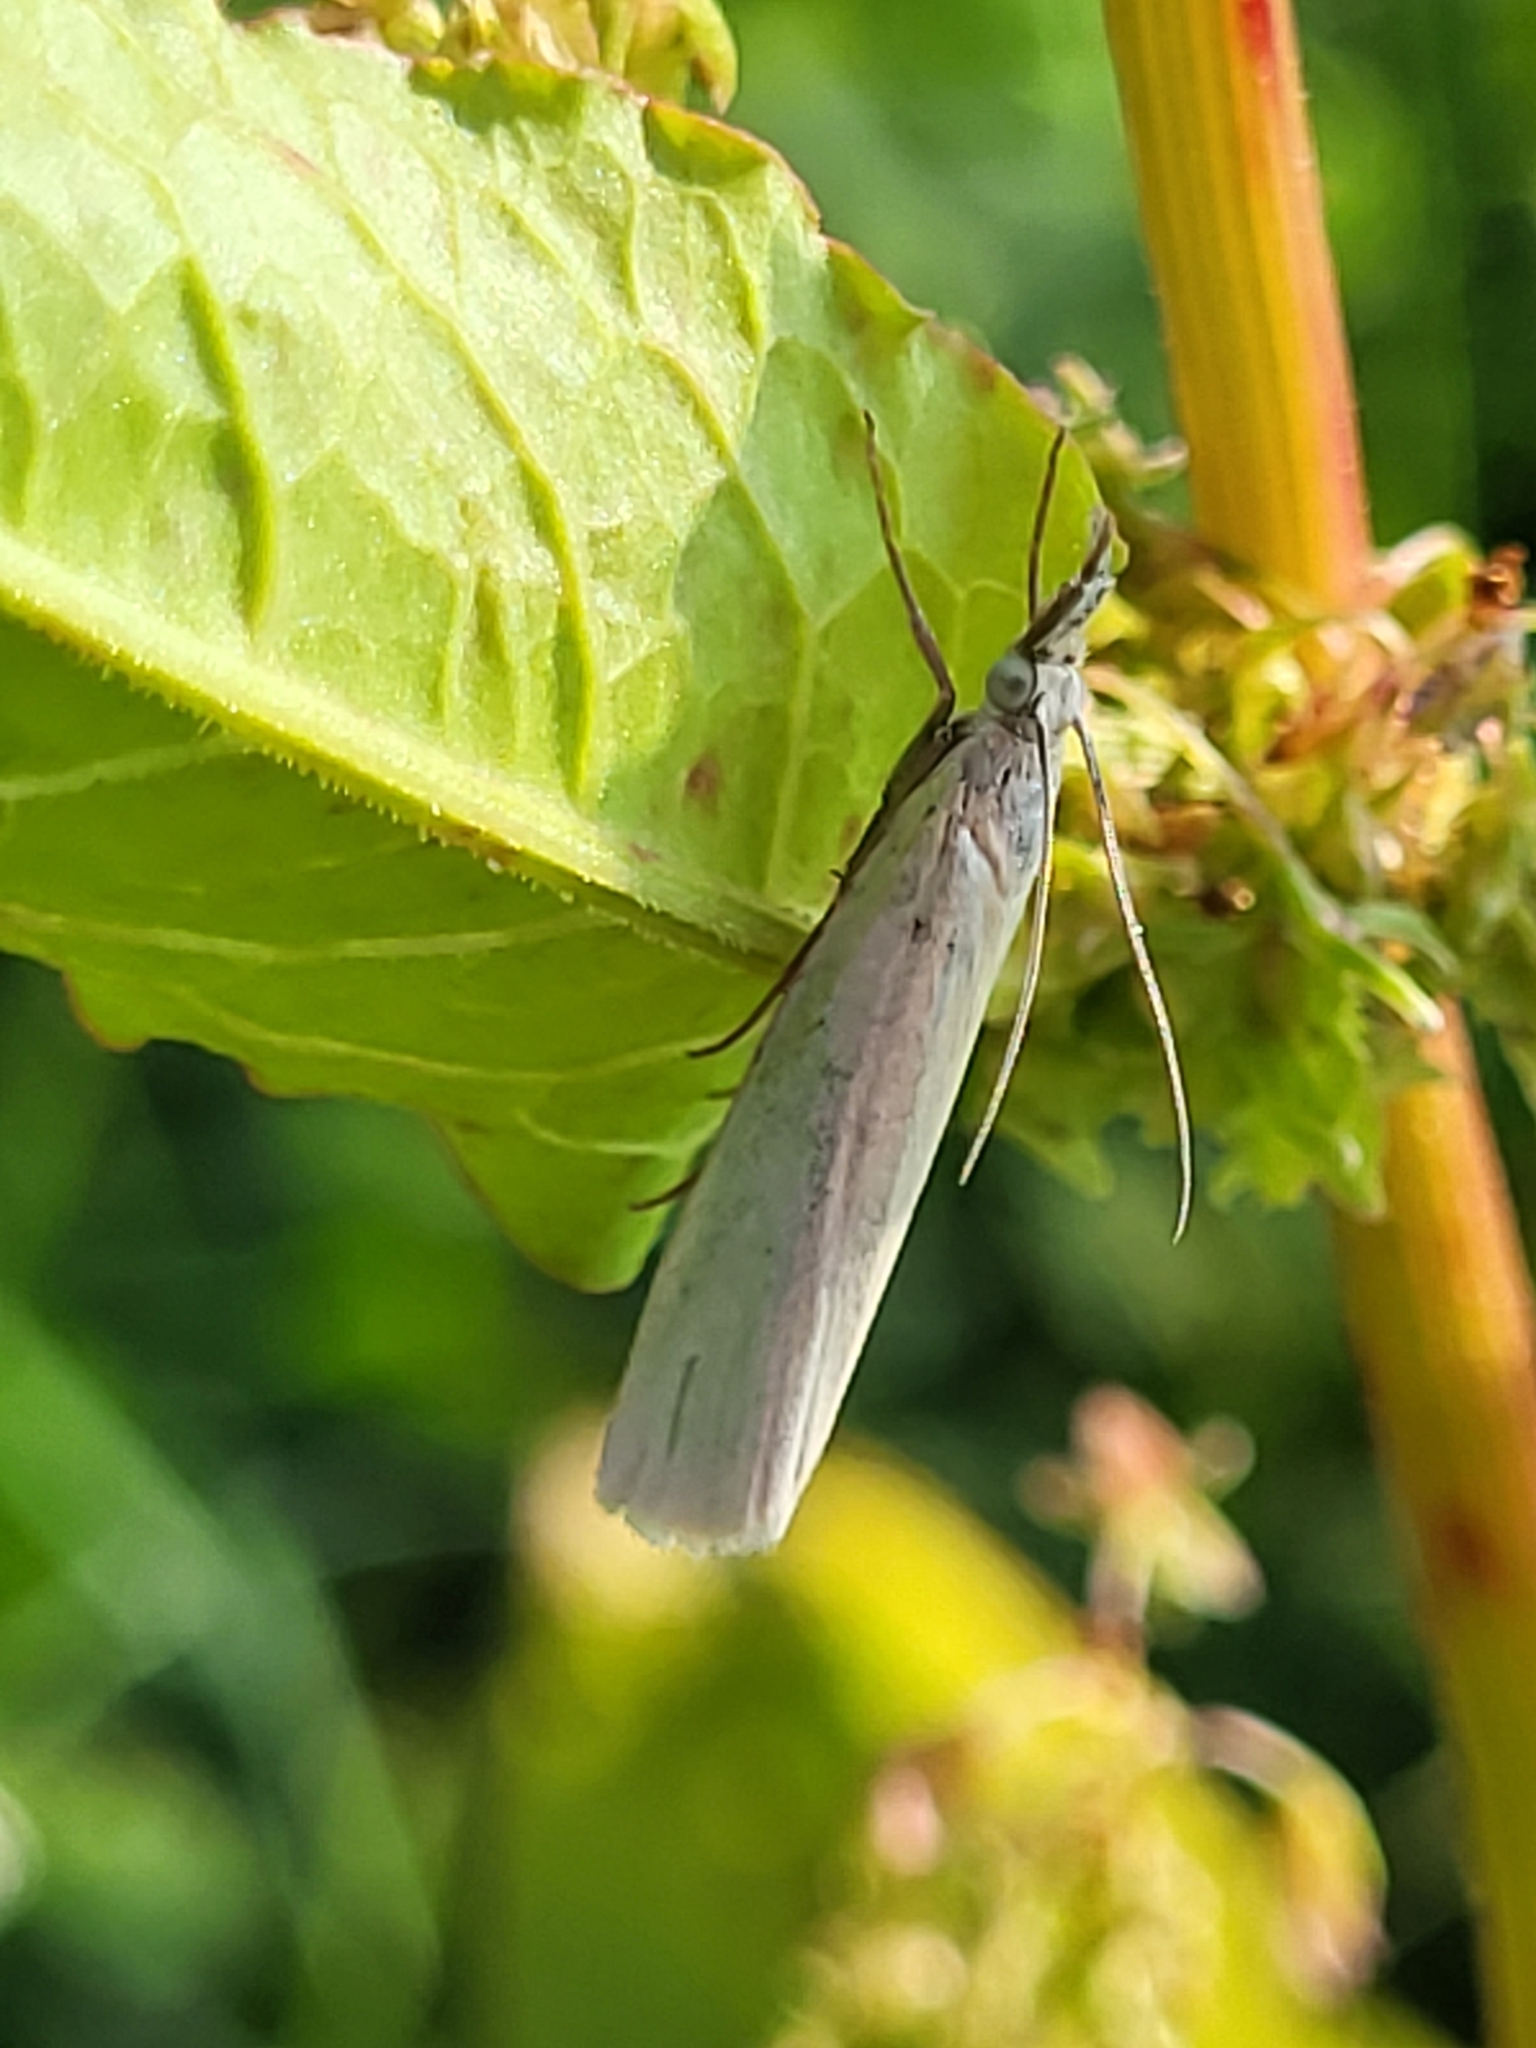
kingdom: Animalia
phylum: Arthropoda
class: Insecta
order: Lepidoptera
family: Crambidae
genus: Crambus
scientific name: Crambus perlellus
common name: Yellow satin veneer
